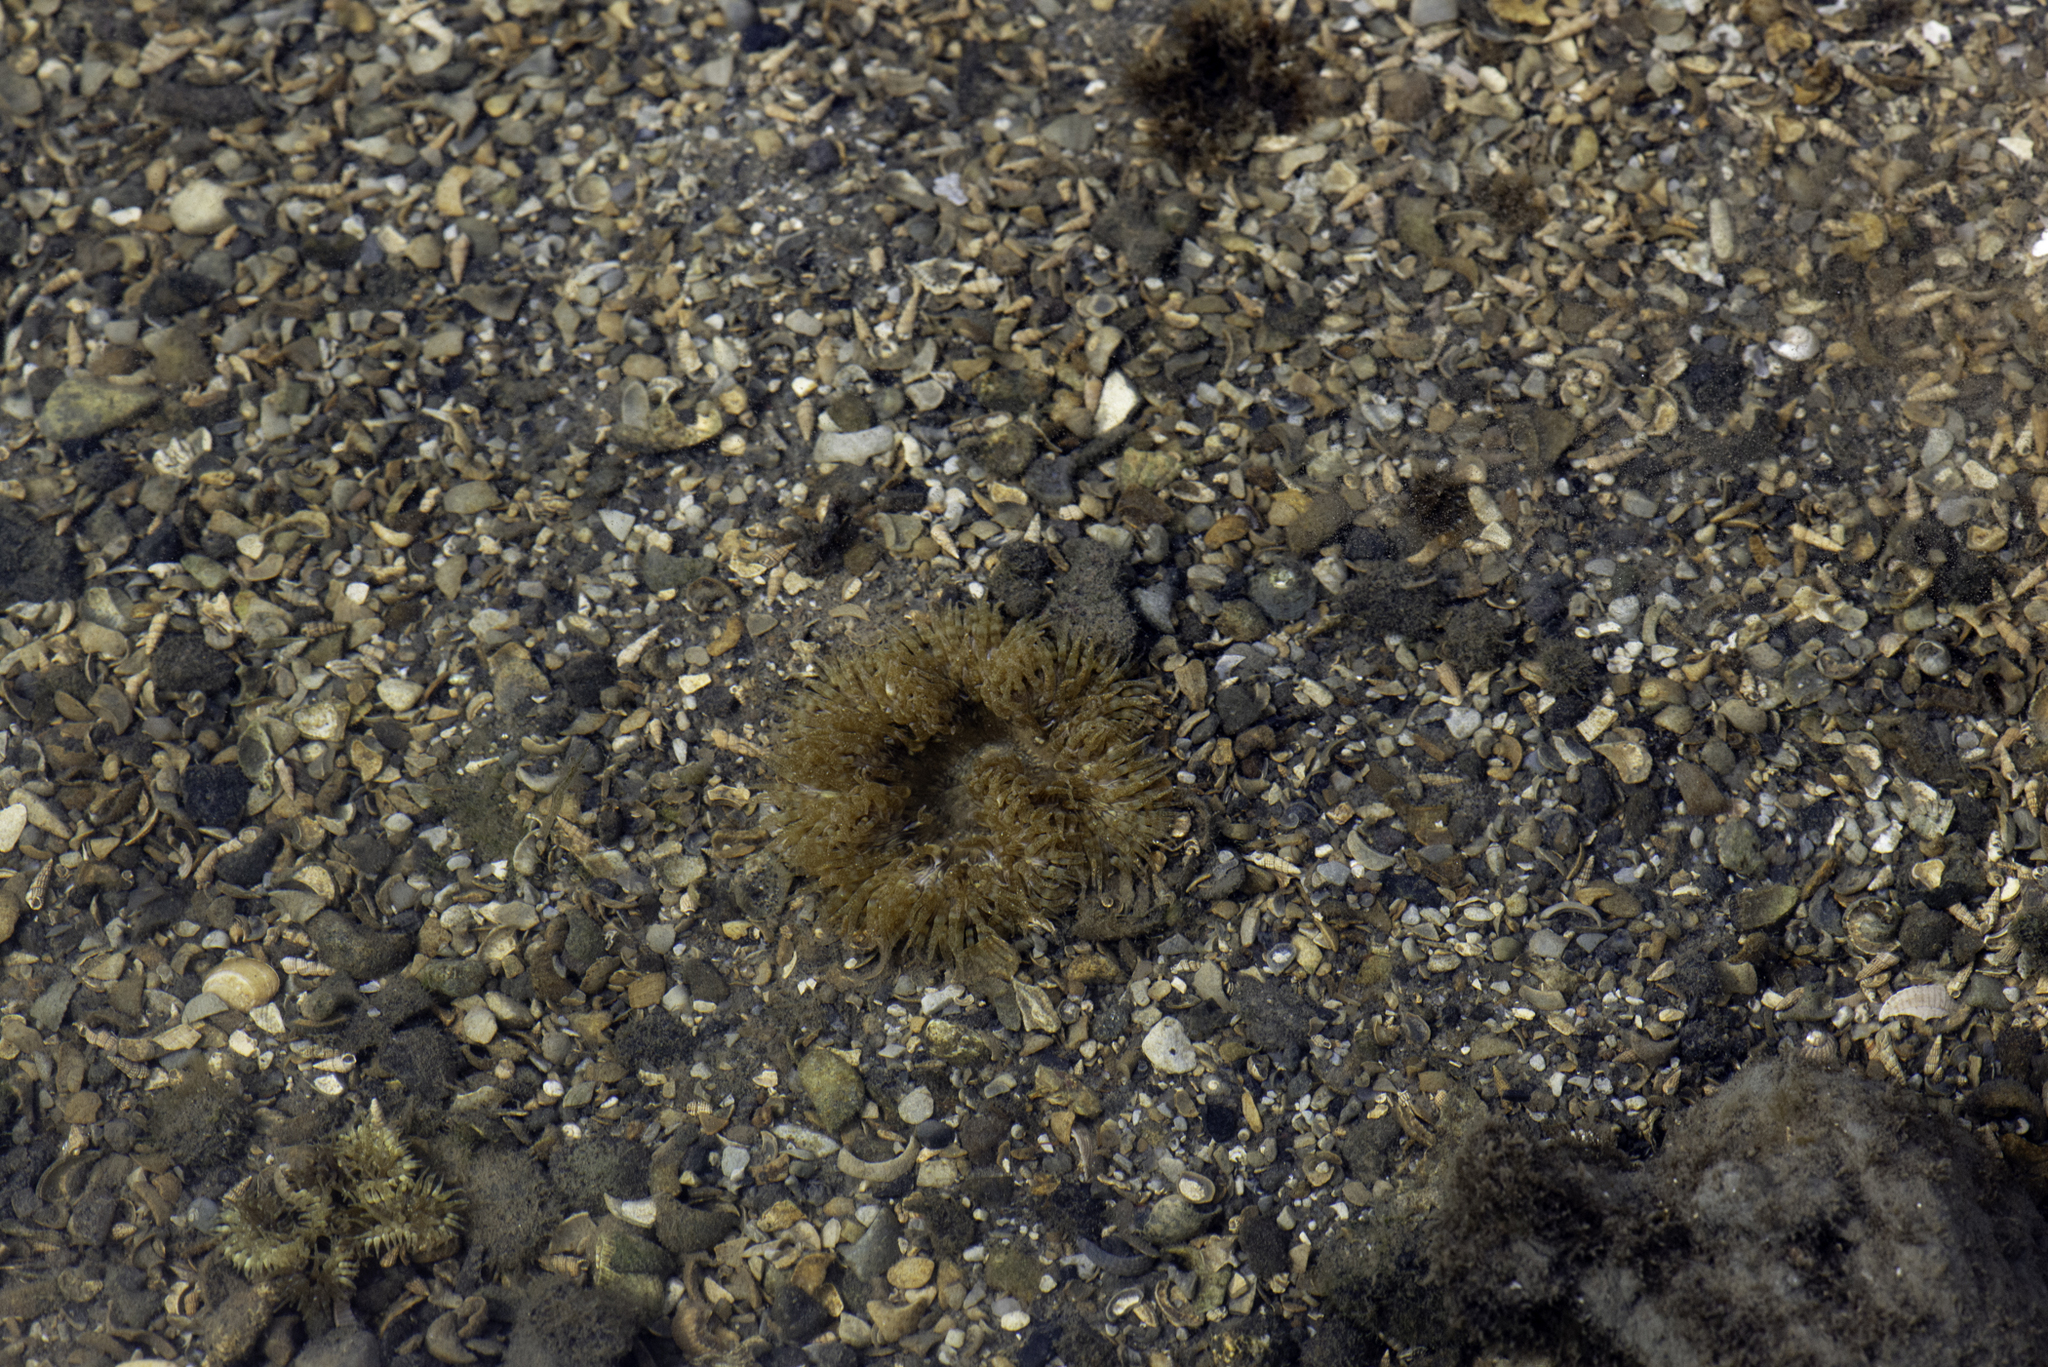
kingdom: Animalia
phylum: Cnidaria
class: Anthozoa
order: Actiniaria
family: Sagartiidae
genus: Cereus
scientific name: Cereus pedunculatus
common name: Daisy anemone
